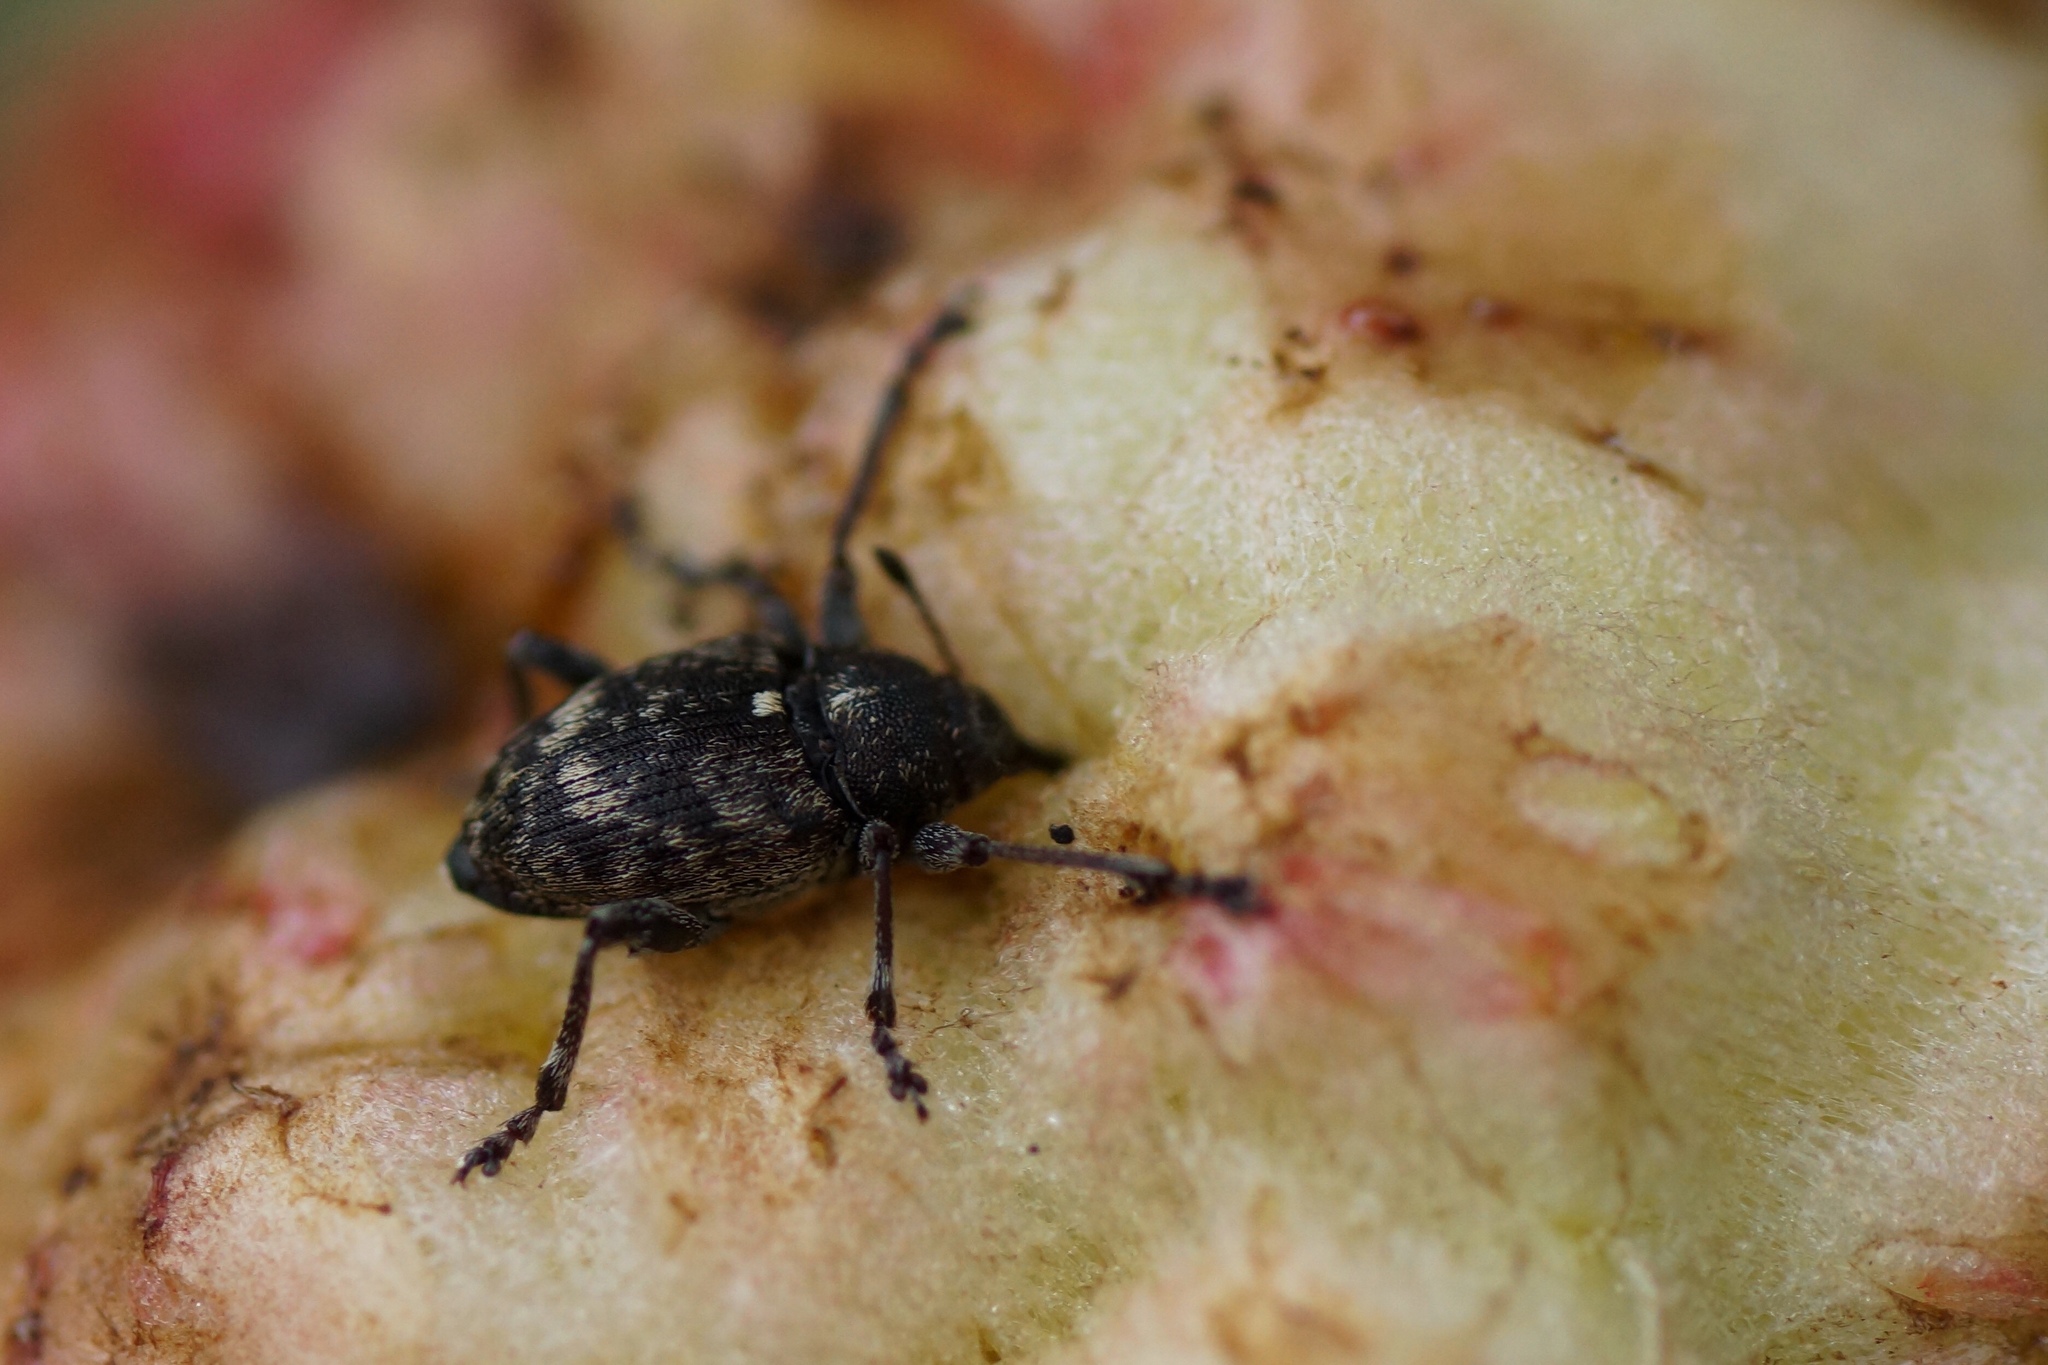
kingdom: Animalia
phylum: Arthropoda
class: Insecta
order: Coleoptera
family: Curculionidae
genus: Curculio
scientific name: Curculio villosus
